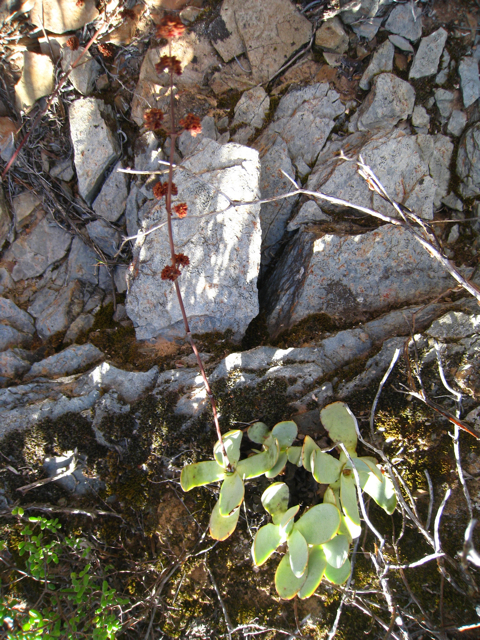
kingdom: Plantae
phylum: Tracheophyta
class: Magnoliopsida
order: Saxifragales
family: Crassulaceae
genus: Crassula
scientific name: Crassula nudicaulis
